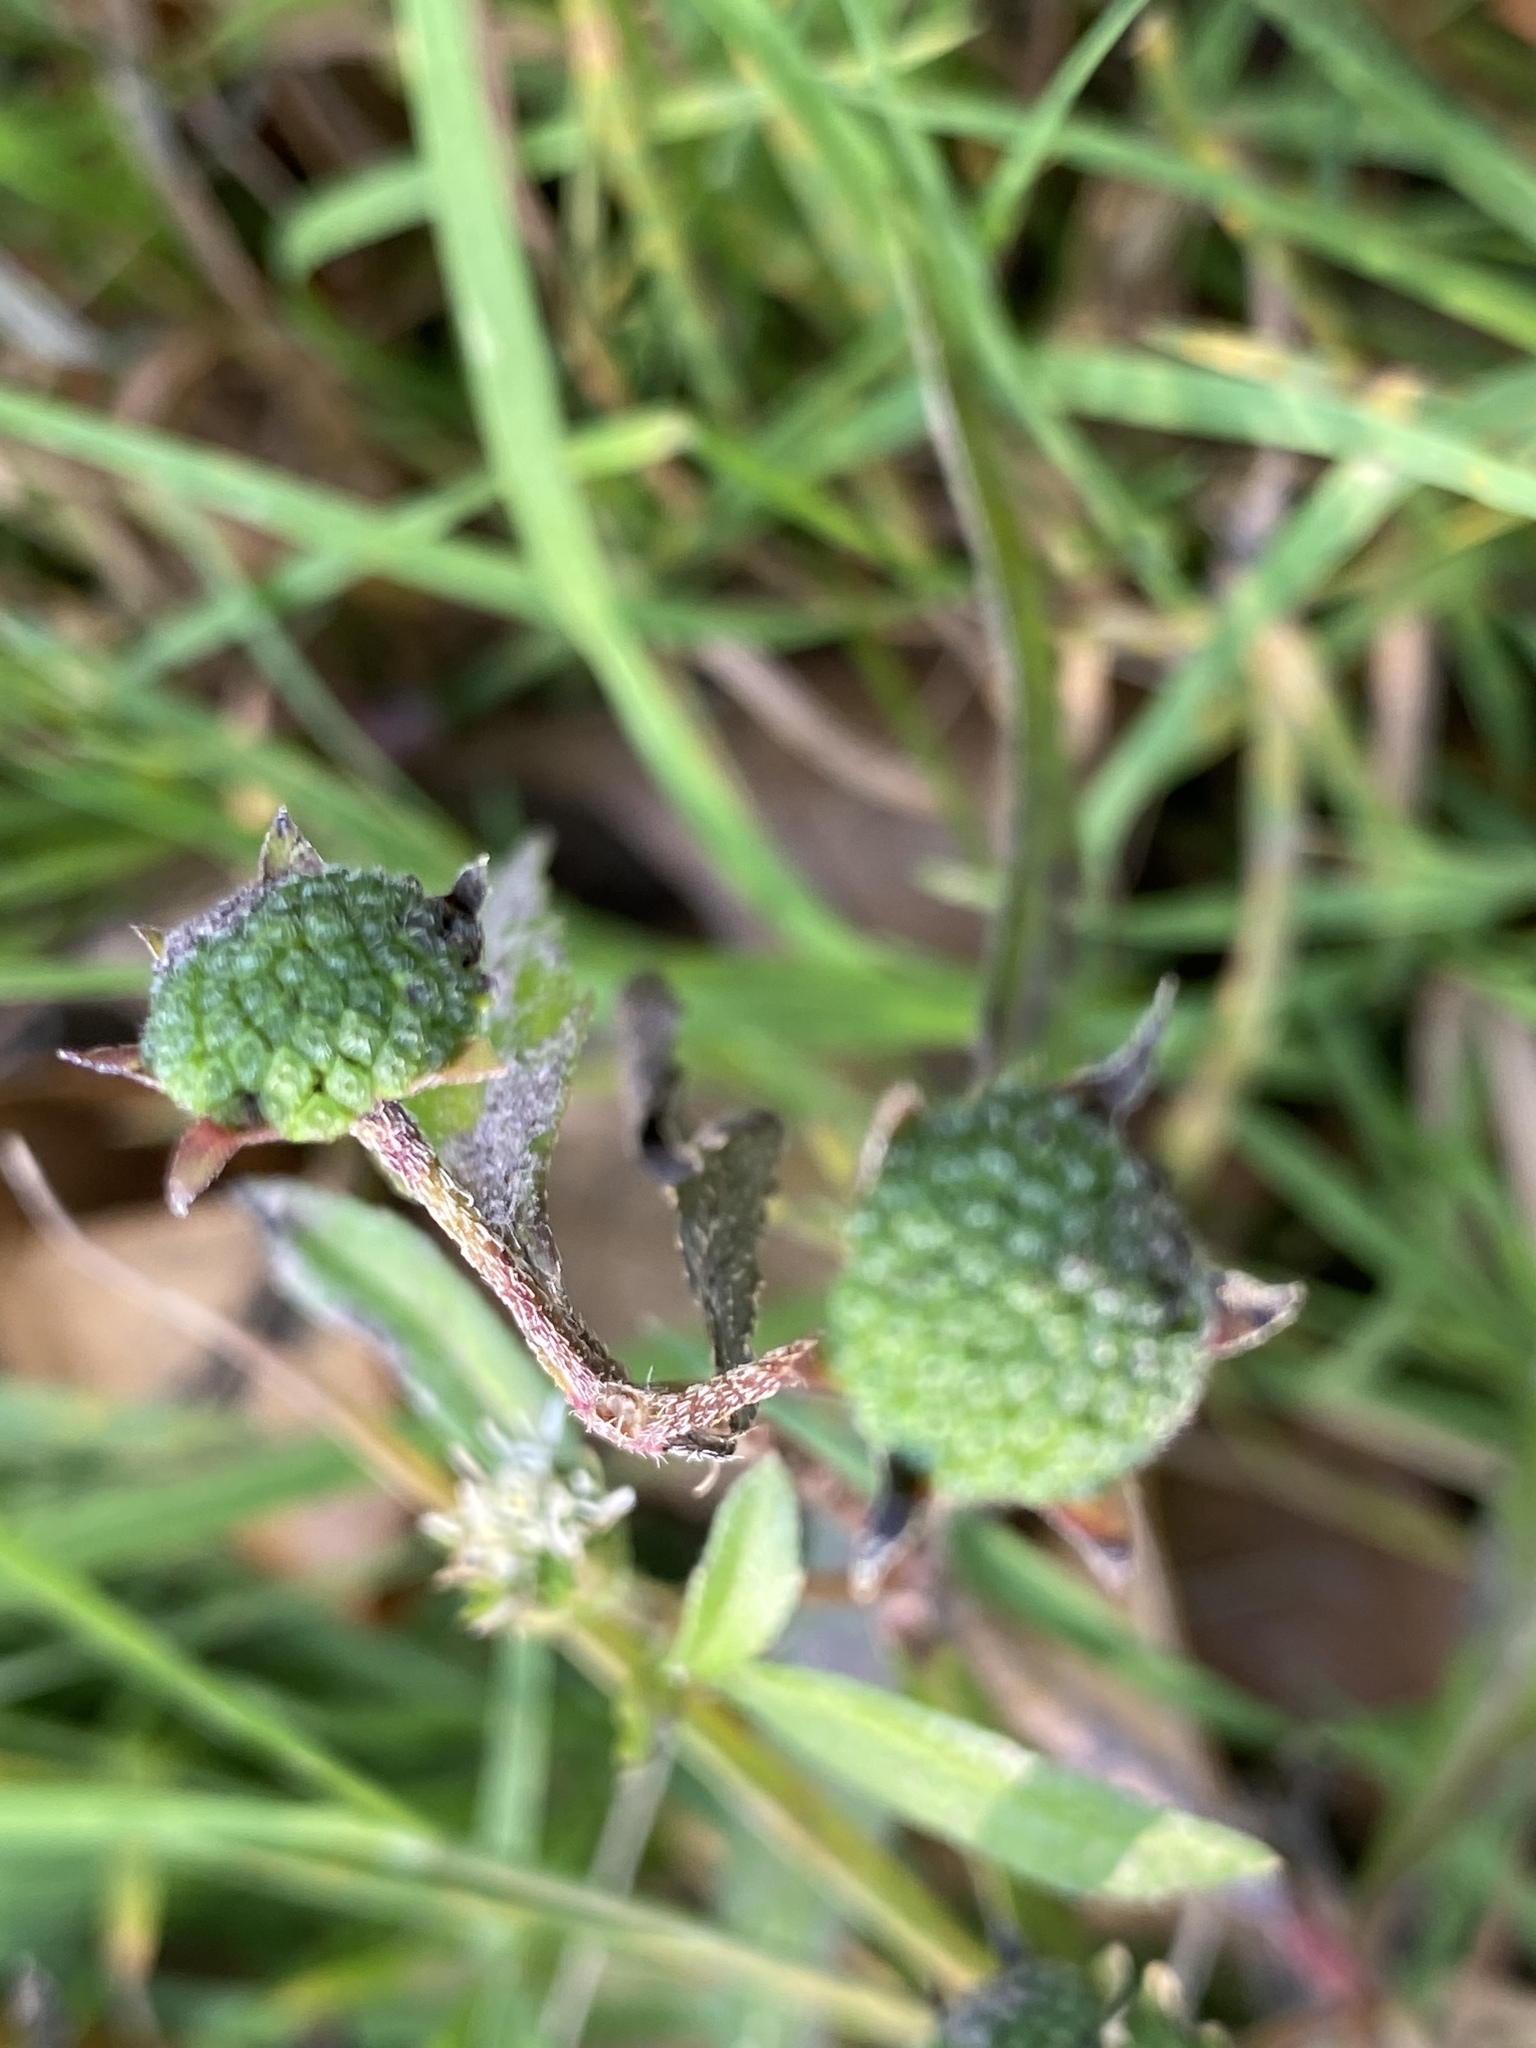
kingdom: Plantae
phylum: Tracheophyta
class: Magnoliopsida
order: Asterales
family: Asteraceae
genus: Eclipta
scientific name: Eclipta prostrata
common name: False daisy
